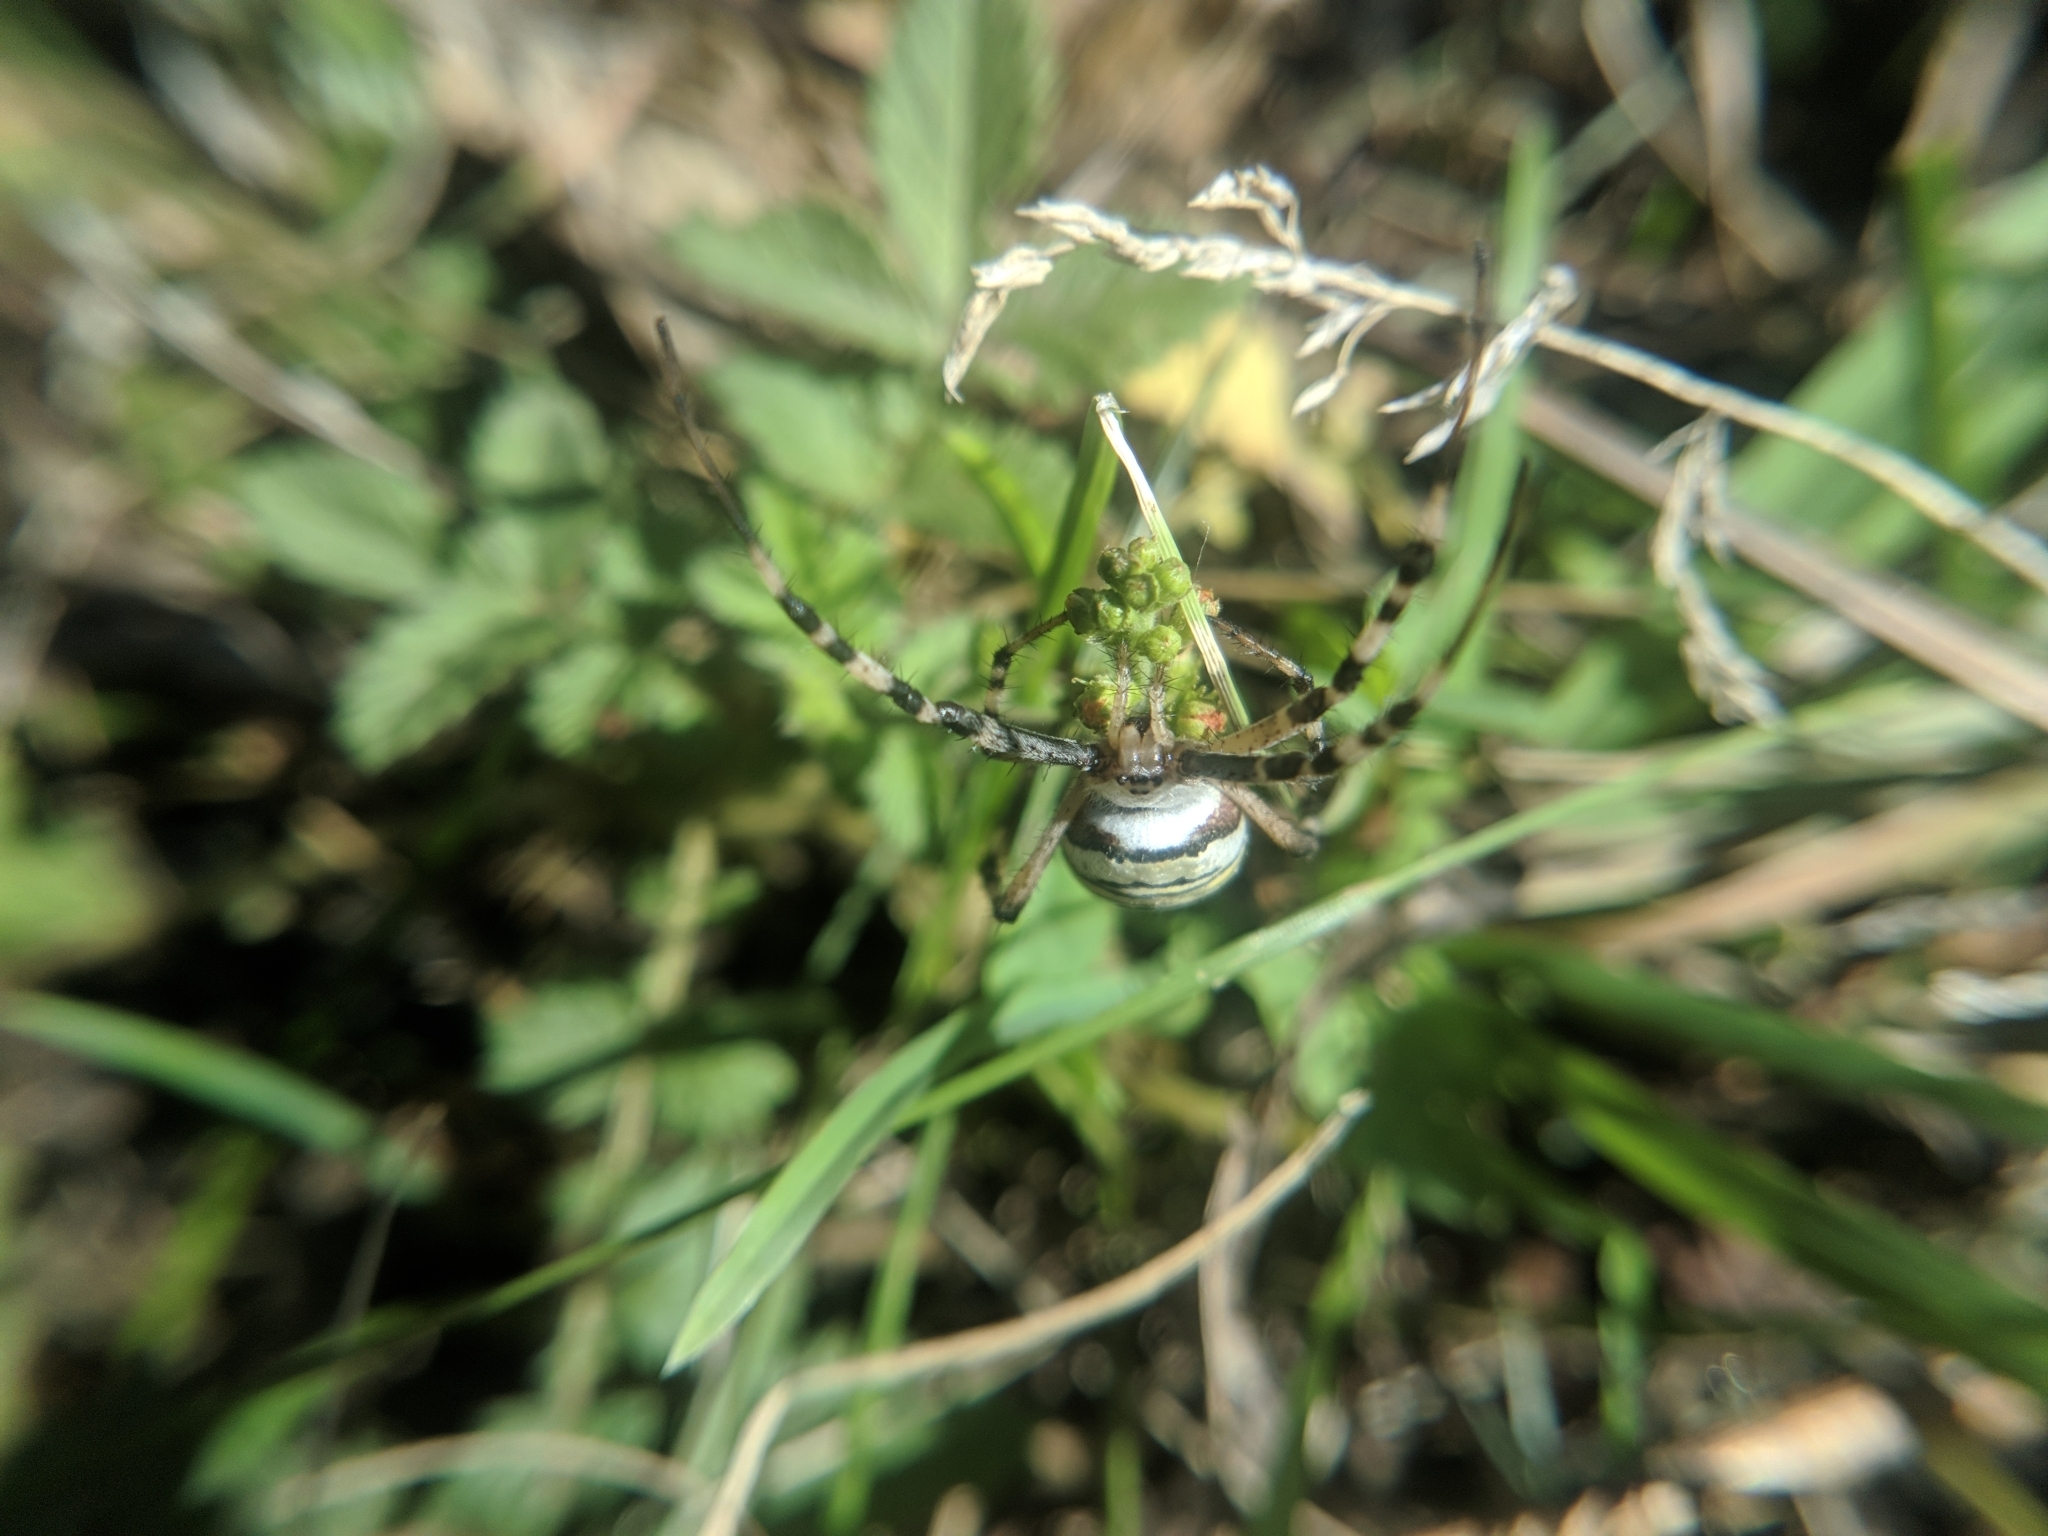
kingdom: Animalia
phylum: Arthropoda
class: Arachnida
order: Araneae
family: Araneidae
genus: Argiope
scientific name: Argiope bruennichi
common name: Wasp spider
